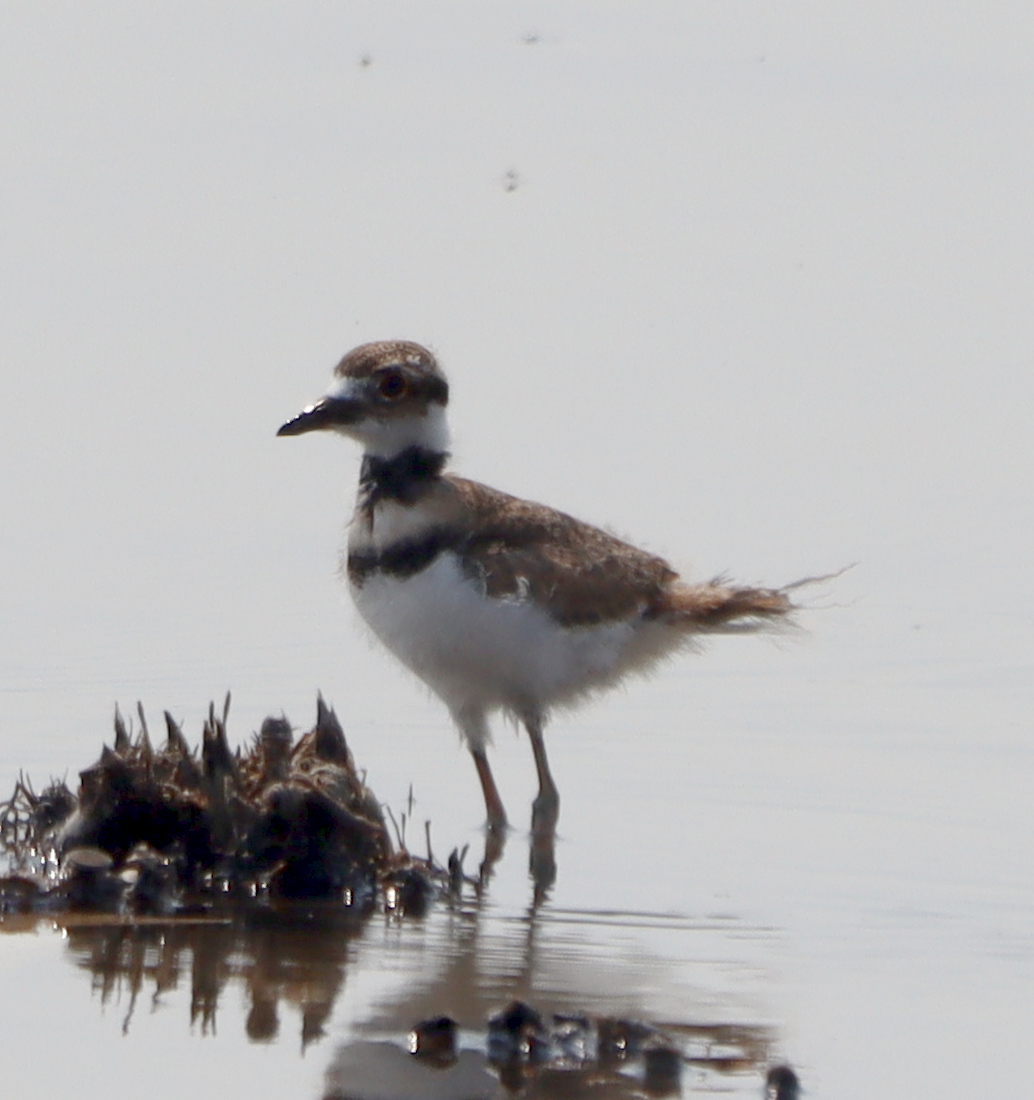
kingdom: Animalia
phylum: Chordata
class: Aves
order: Charadriiformes
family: Charadriidae
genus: Charadrius
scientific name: Charadrius vociferus
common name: Killdeer
